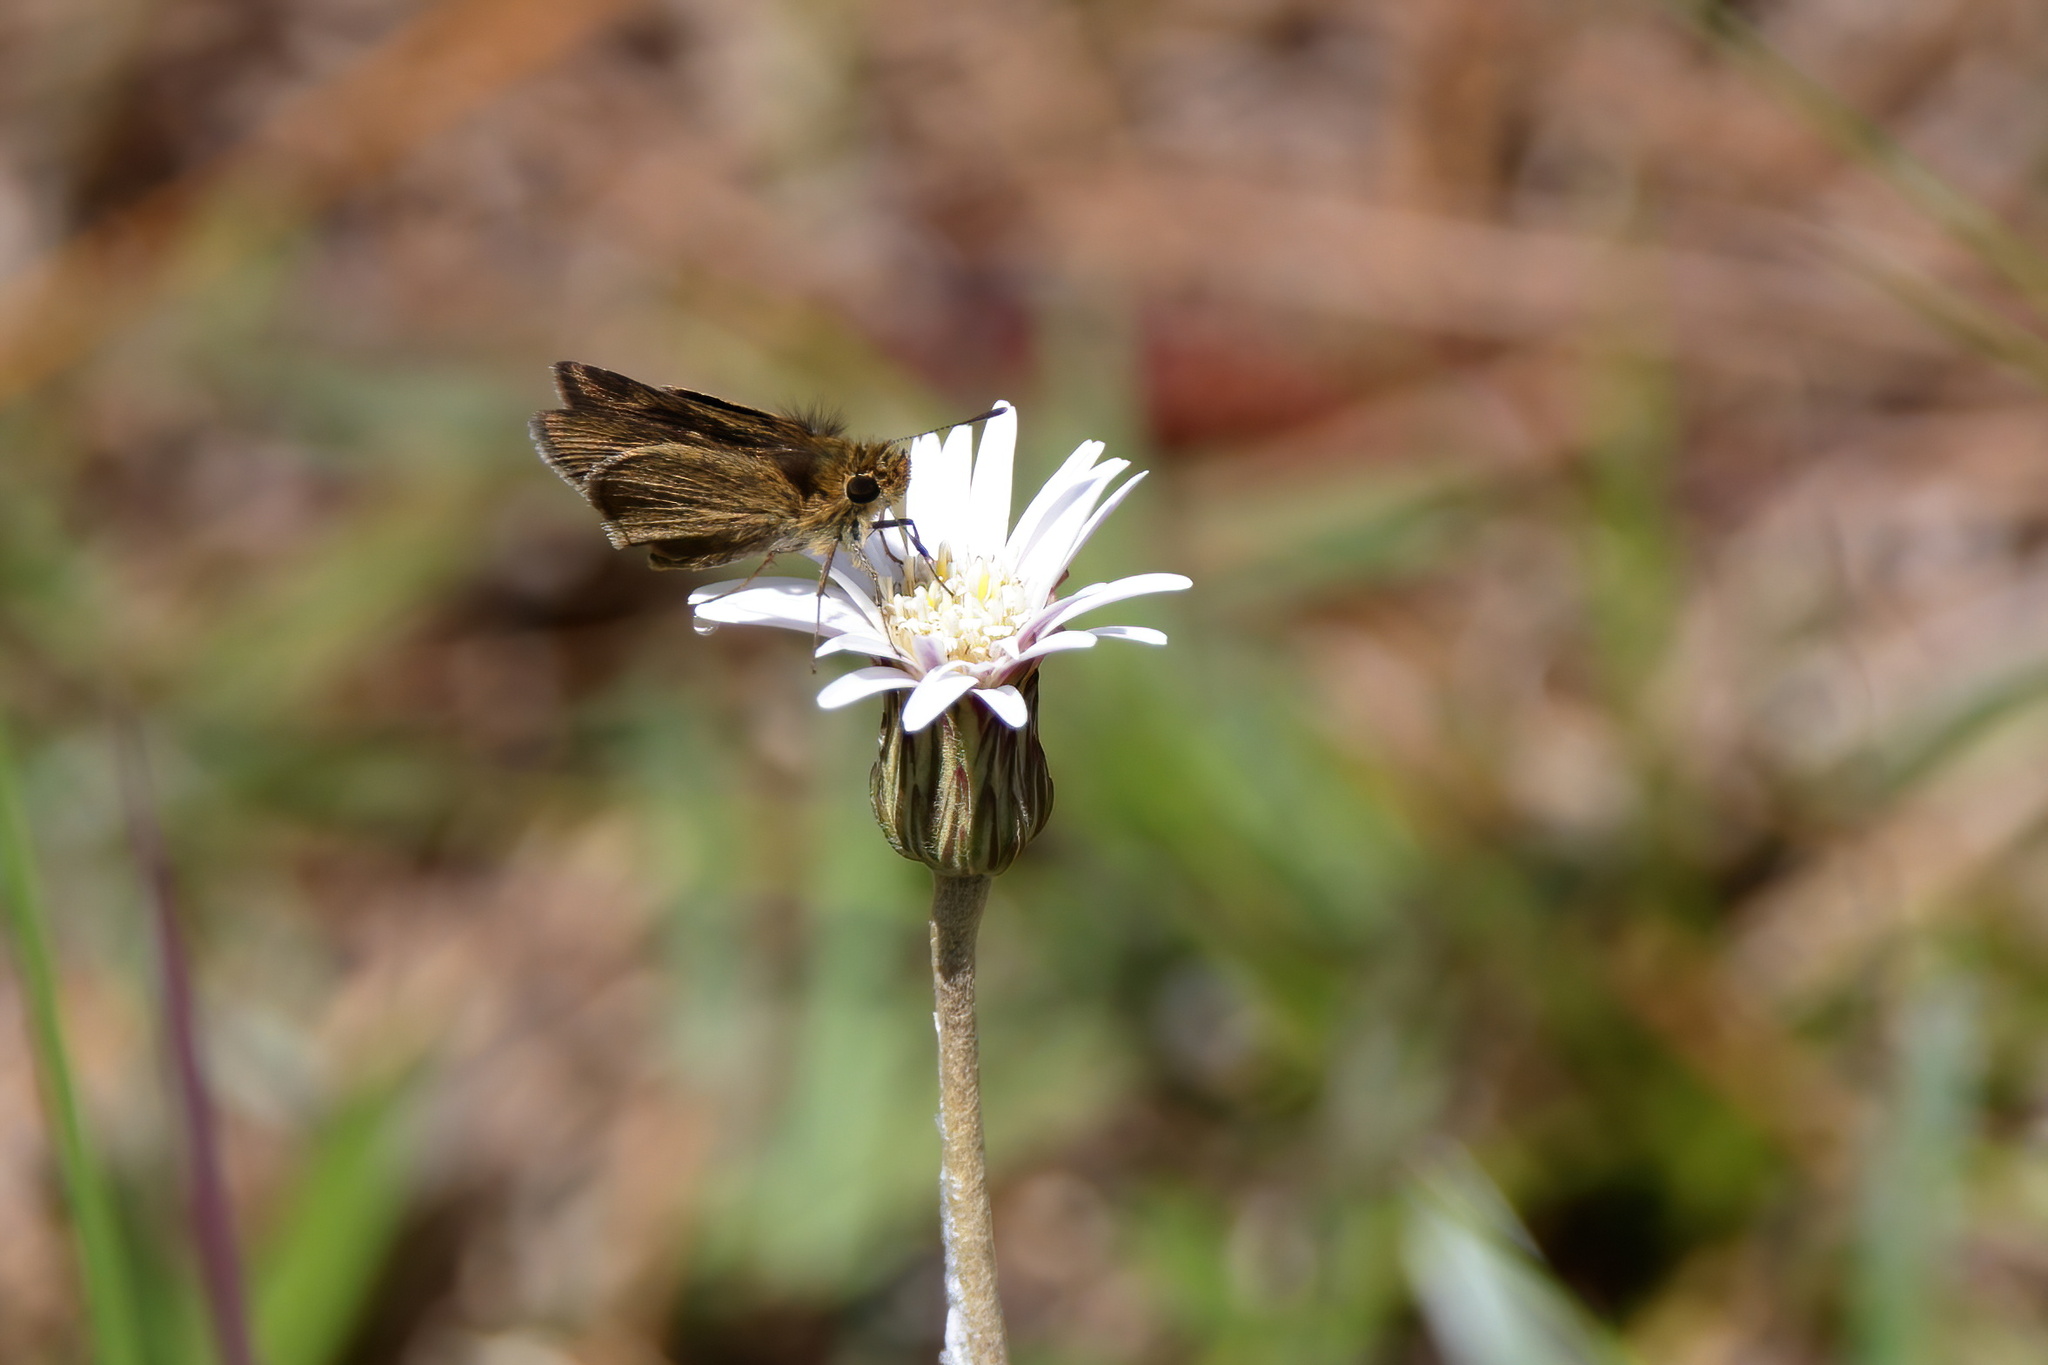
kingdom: Animalia
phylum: Arthropoda
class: Insecta
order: Lepidoptera
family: Hesperiidae
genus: Nastra
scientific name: Nastra
